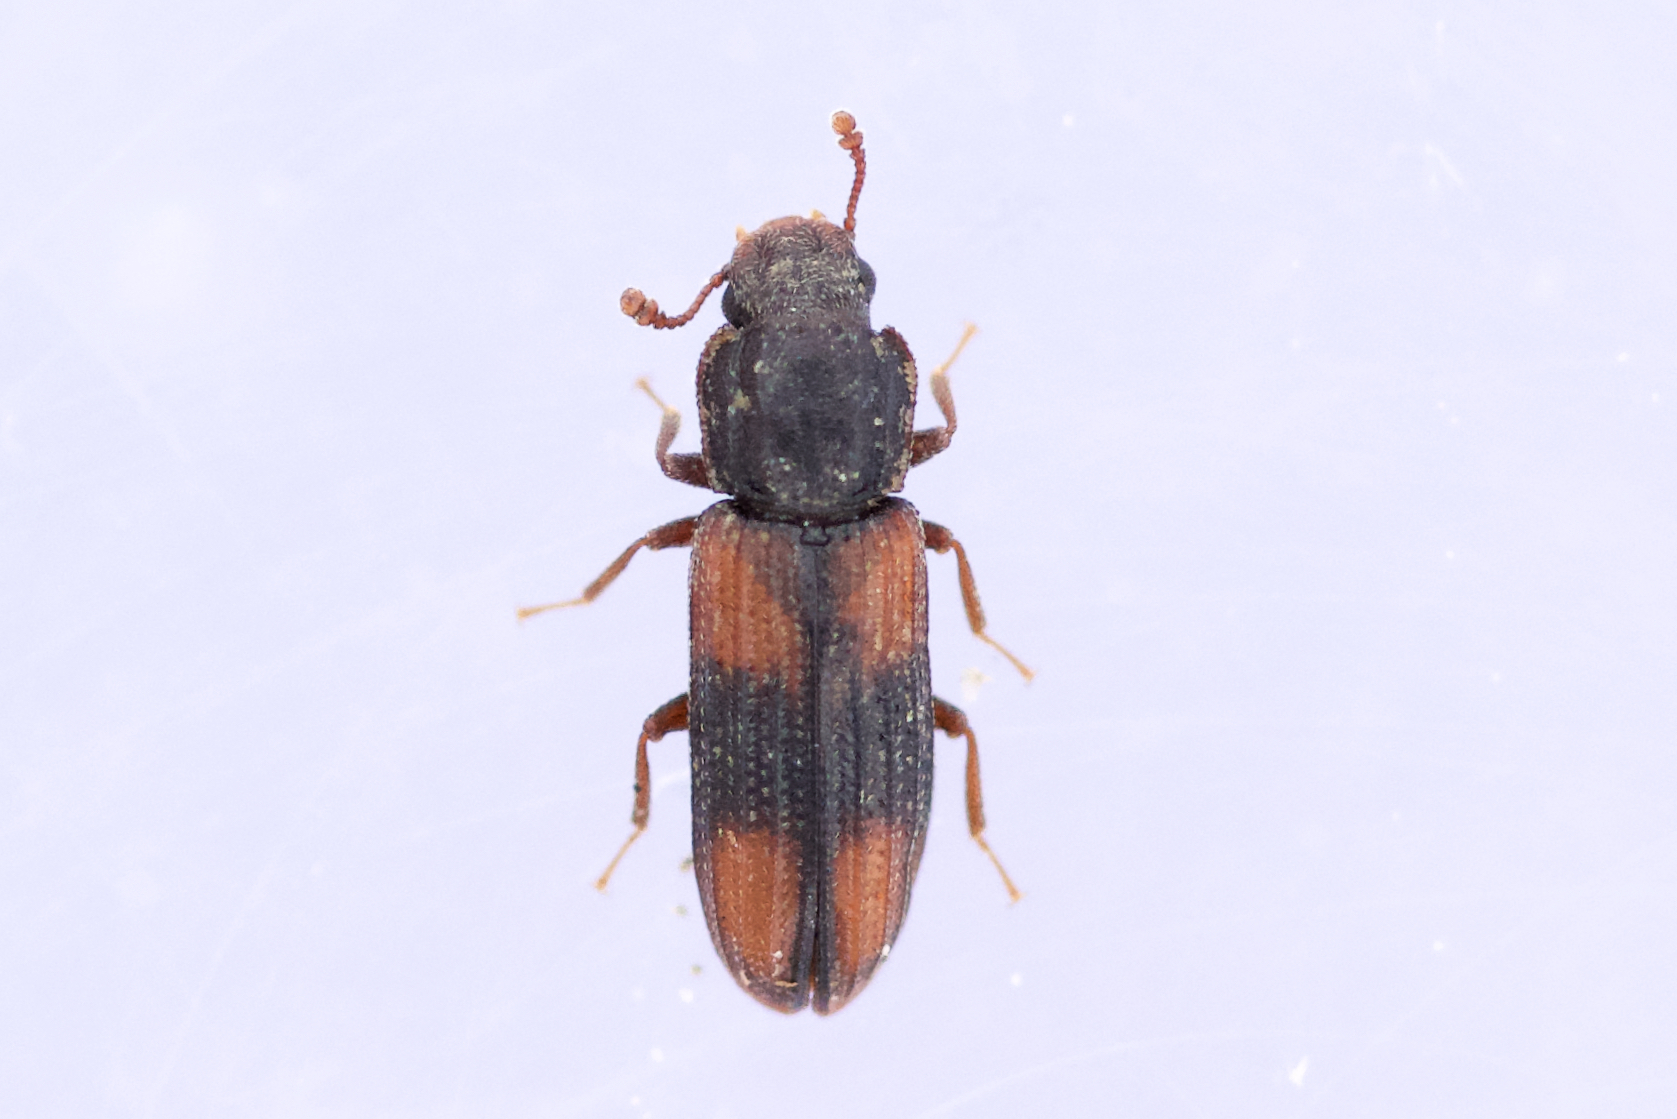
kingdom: Animalia
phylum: Arthropoda
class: Insecta
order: Coleoptera
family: Zopheridae
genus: Bitoma
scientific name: Bitoma crenata
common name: Bark beetle
